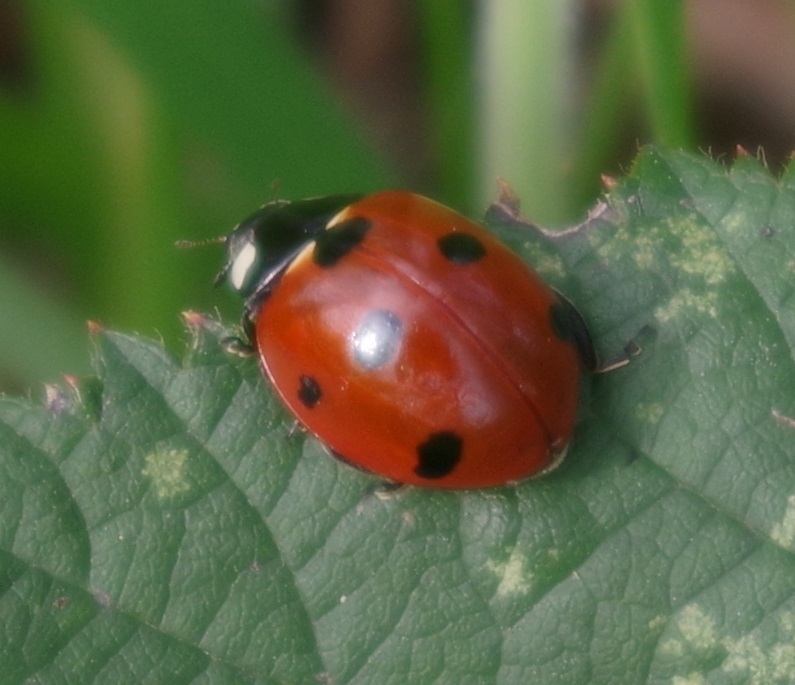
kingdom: Animalia
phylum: Arthropoda
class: Insecta
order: Coleoptera
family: Coccinellidae
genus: Coccinella
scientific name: Coccinella septempunctata
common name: Sevenspotted lady beetle
